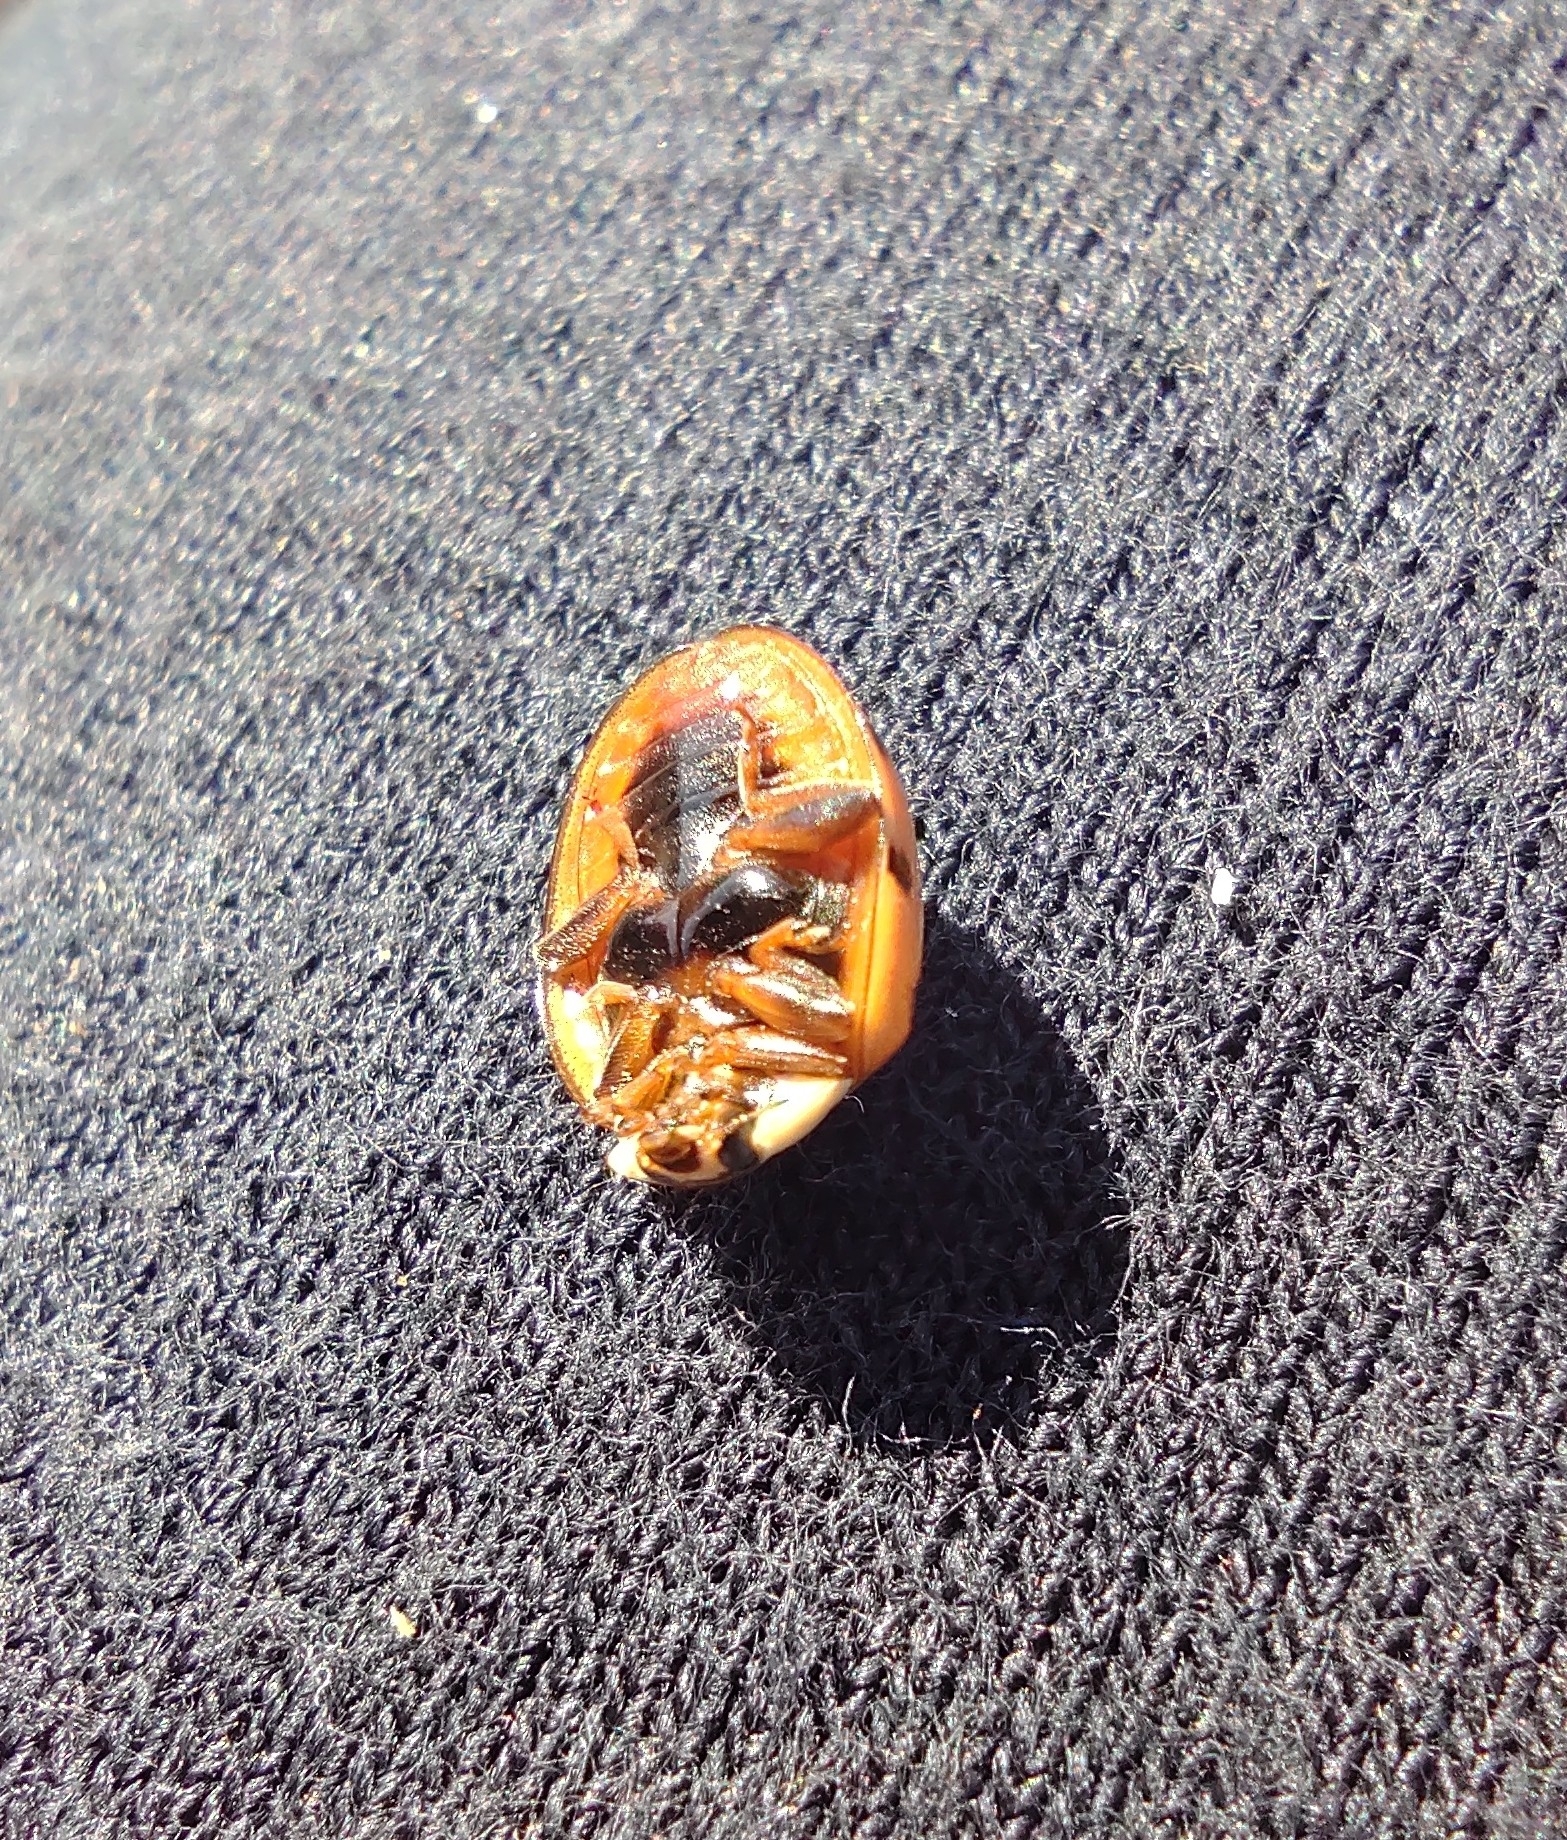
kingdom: Animalia
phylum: Arthropoda
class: Insecta
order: Coleoptera
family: Coccinellidae
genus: Harmonia
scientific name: Harmonia axyridis
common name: Harlequin ladybird
